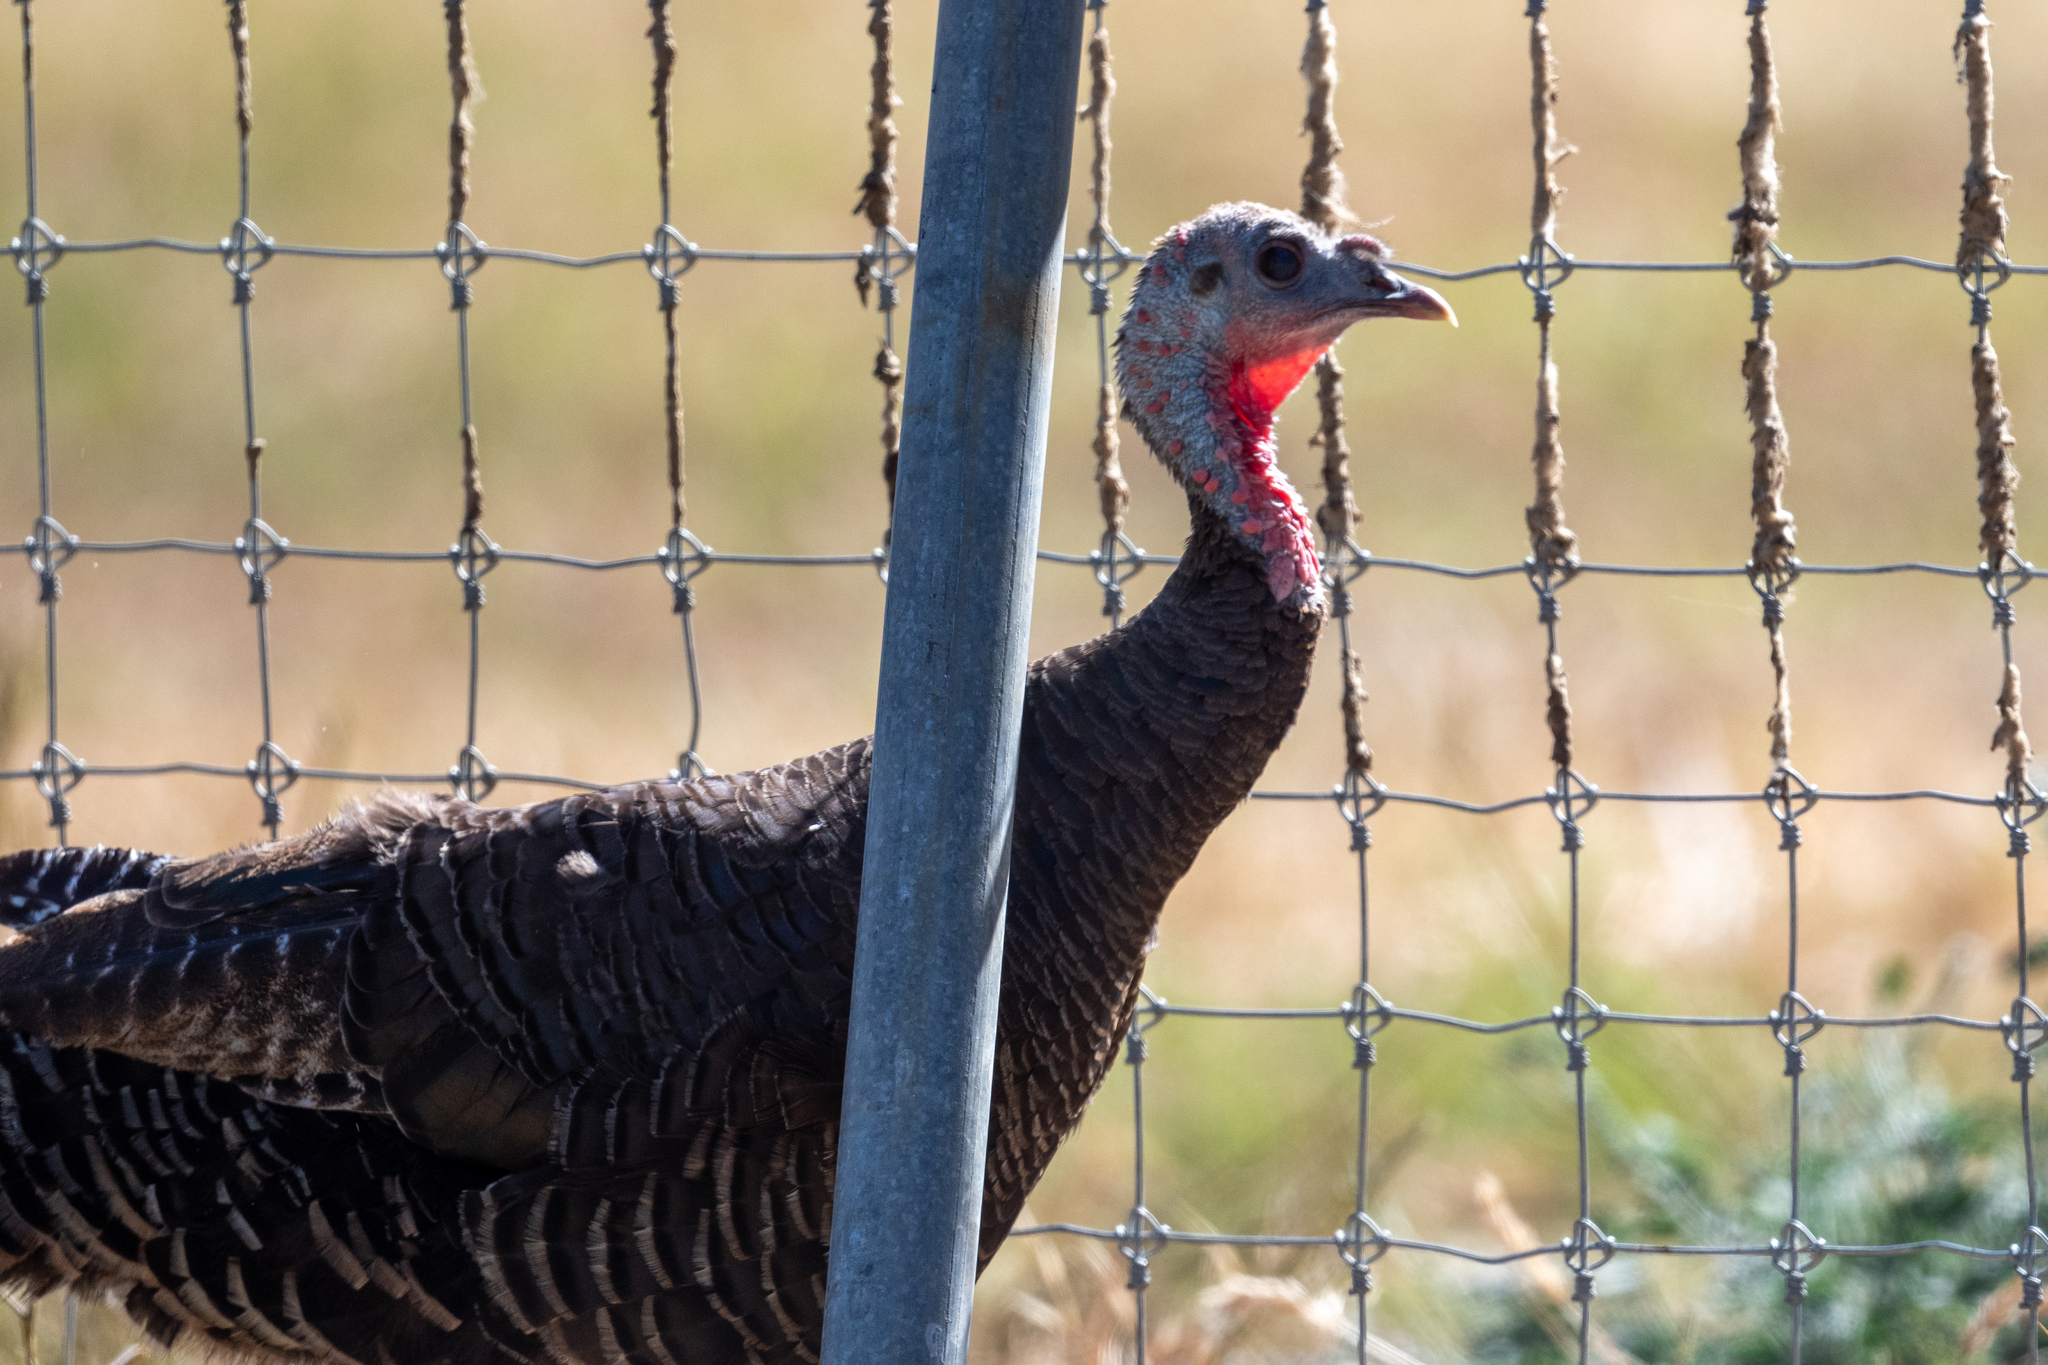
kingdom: Animalia
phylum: Chordata
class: Aves
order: Galliformes
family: Phasianidae
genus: Meleagris
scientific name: Meleagris gallopavo
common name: Wild turkey
